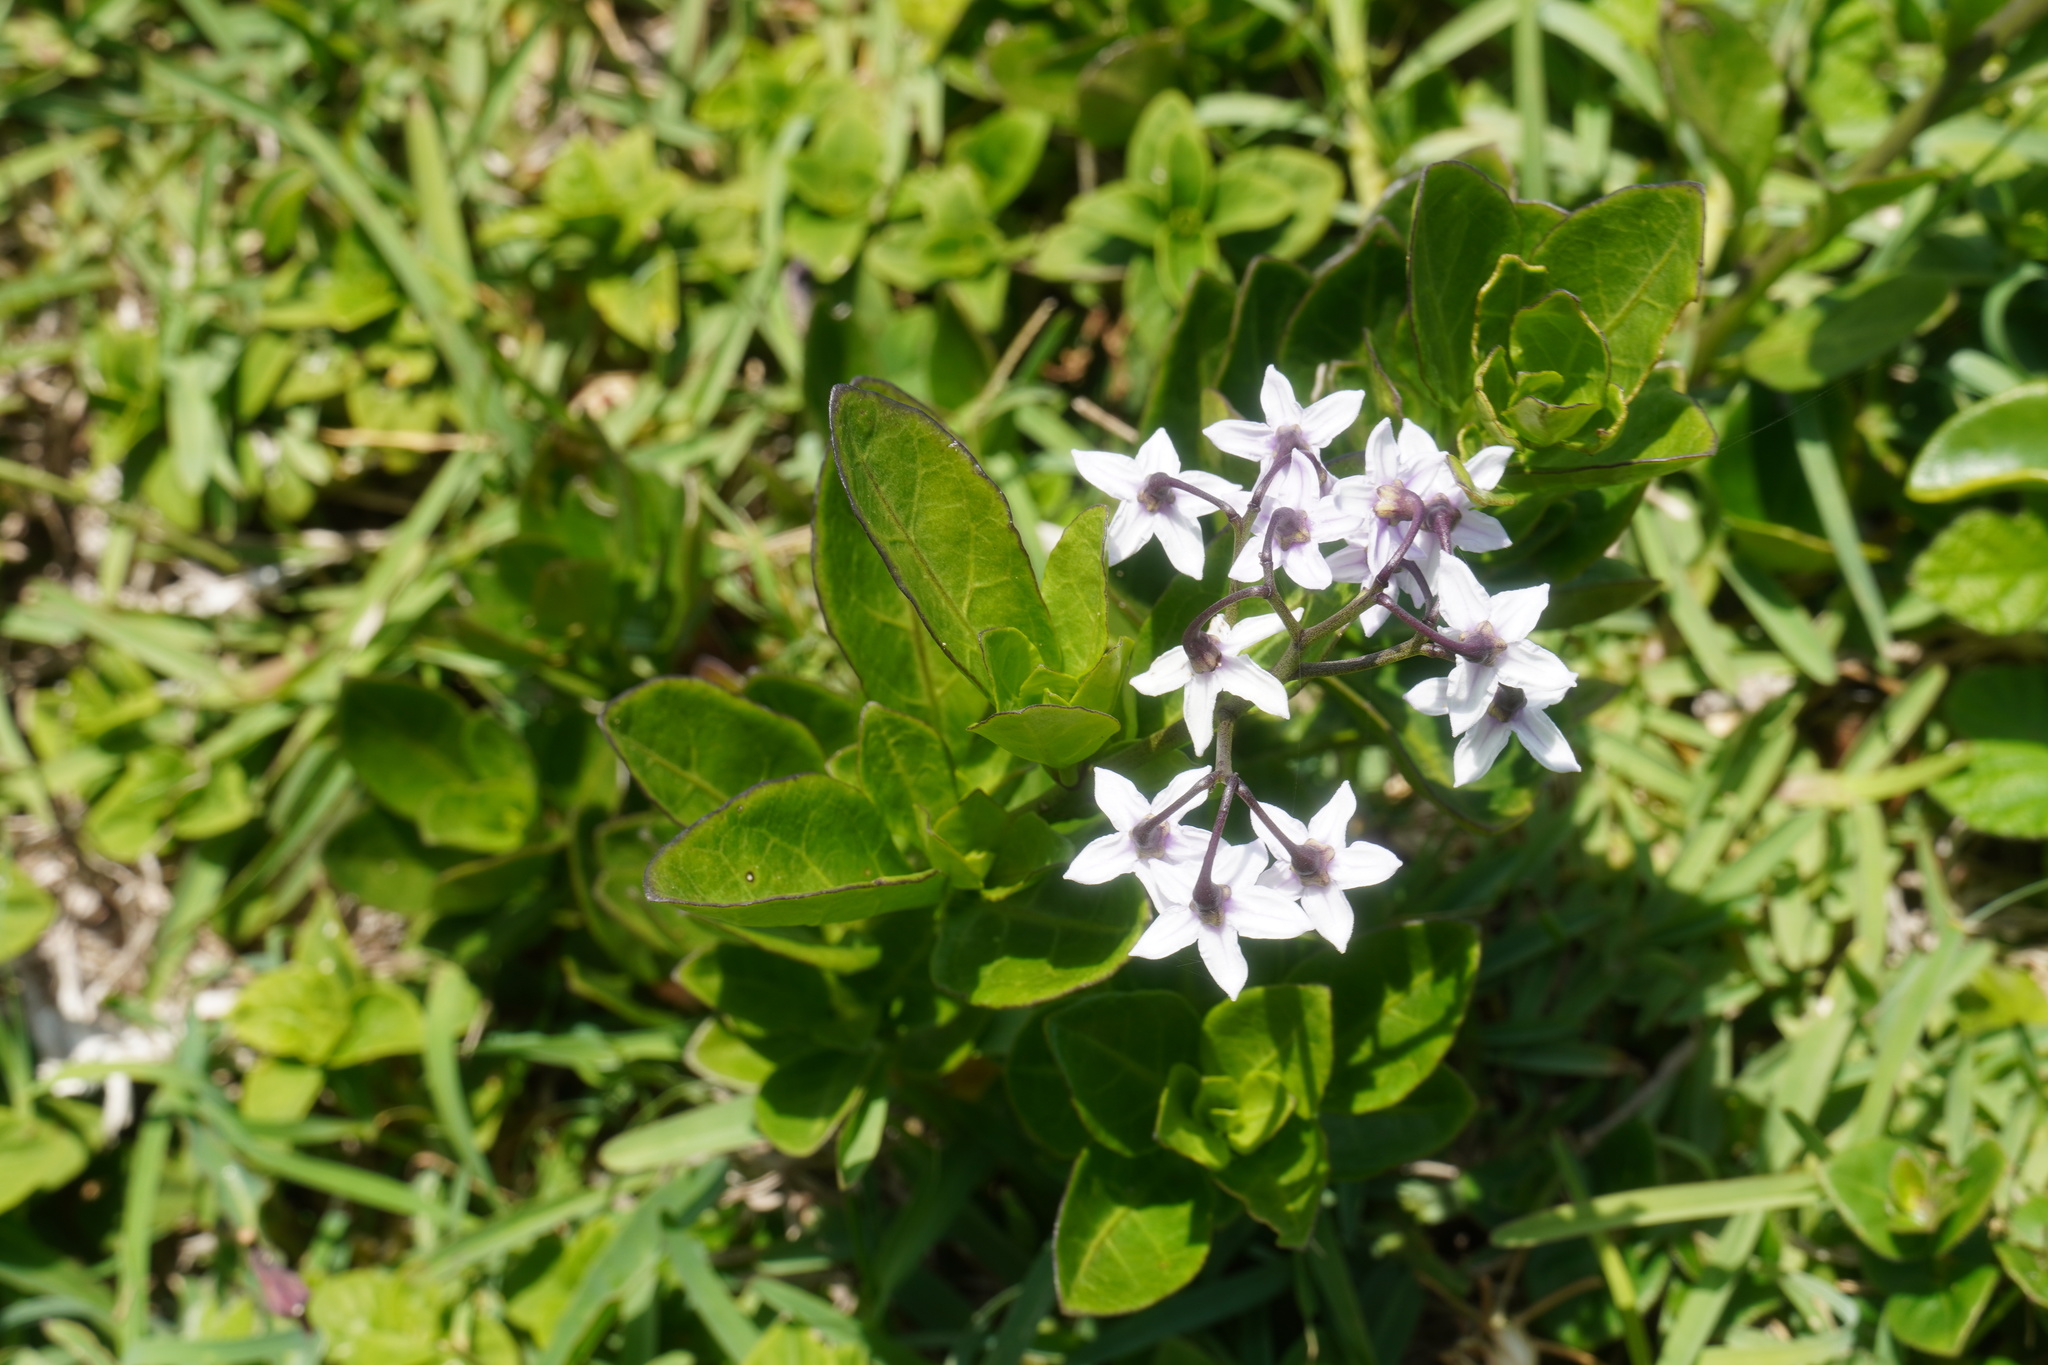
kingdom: Plantae
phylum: Tracheophyta
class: Magnoliopsida
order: Solanales
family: Solanaceae
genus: Solanum
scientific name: Solanum africanum
